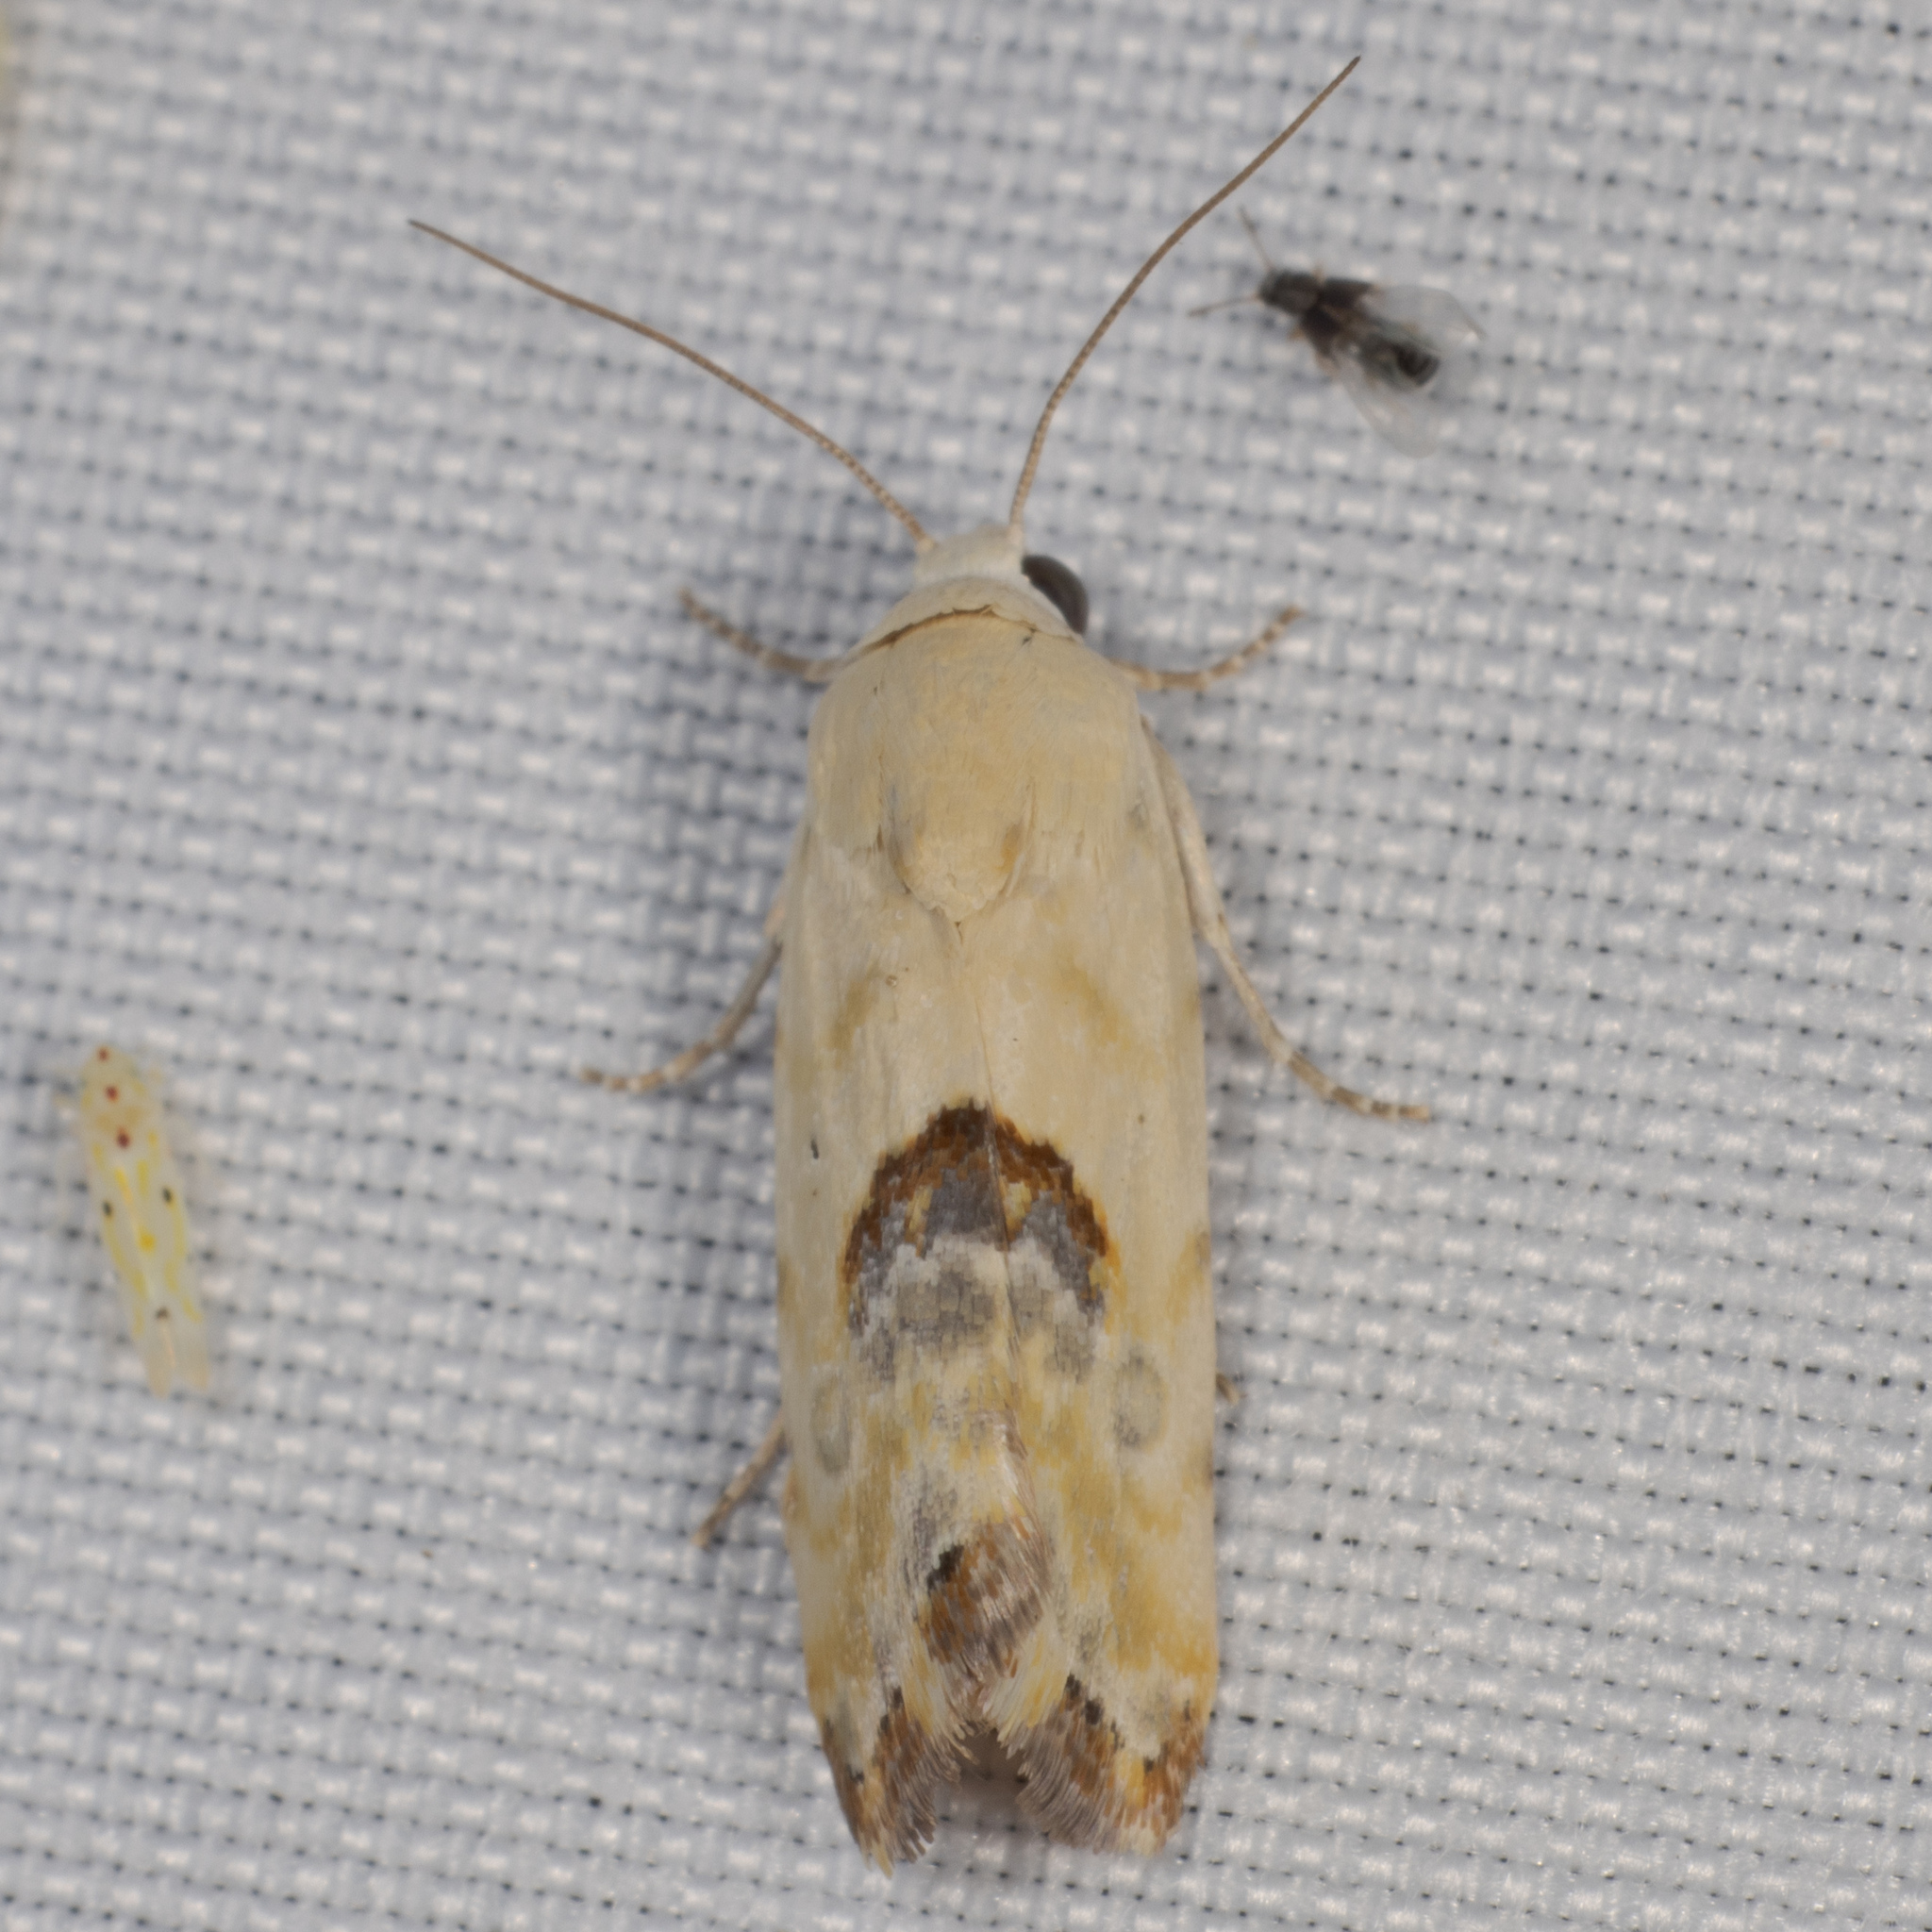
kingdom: Animalia
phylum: Arthropoda
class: Insecta
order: Lepidoptera
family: Noctuidae
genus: Acontia
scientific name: Acontia candefacta
